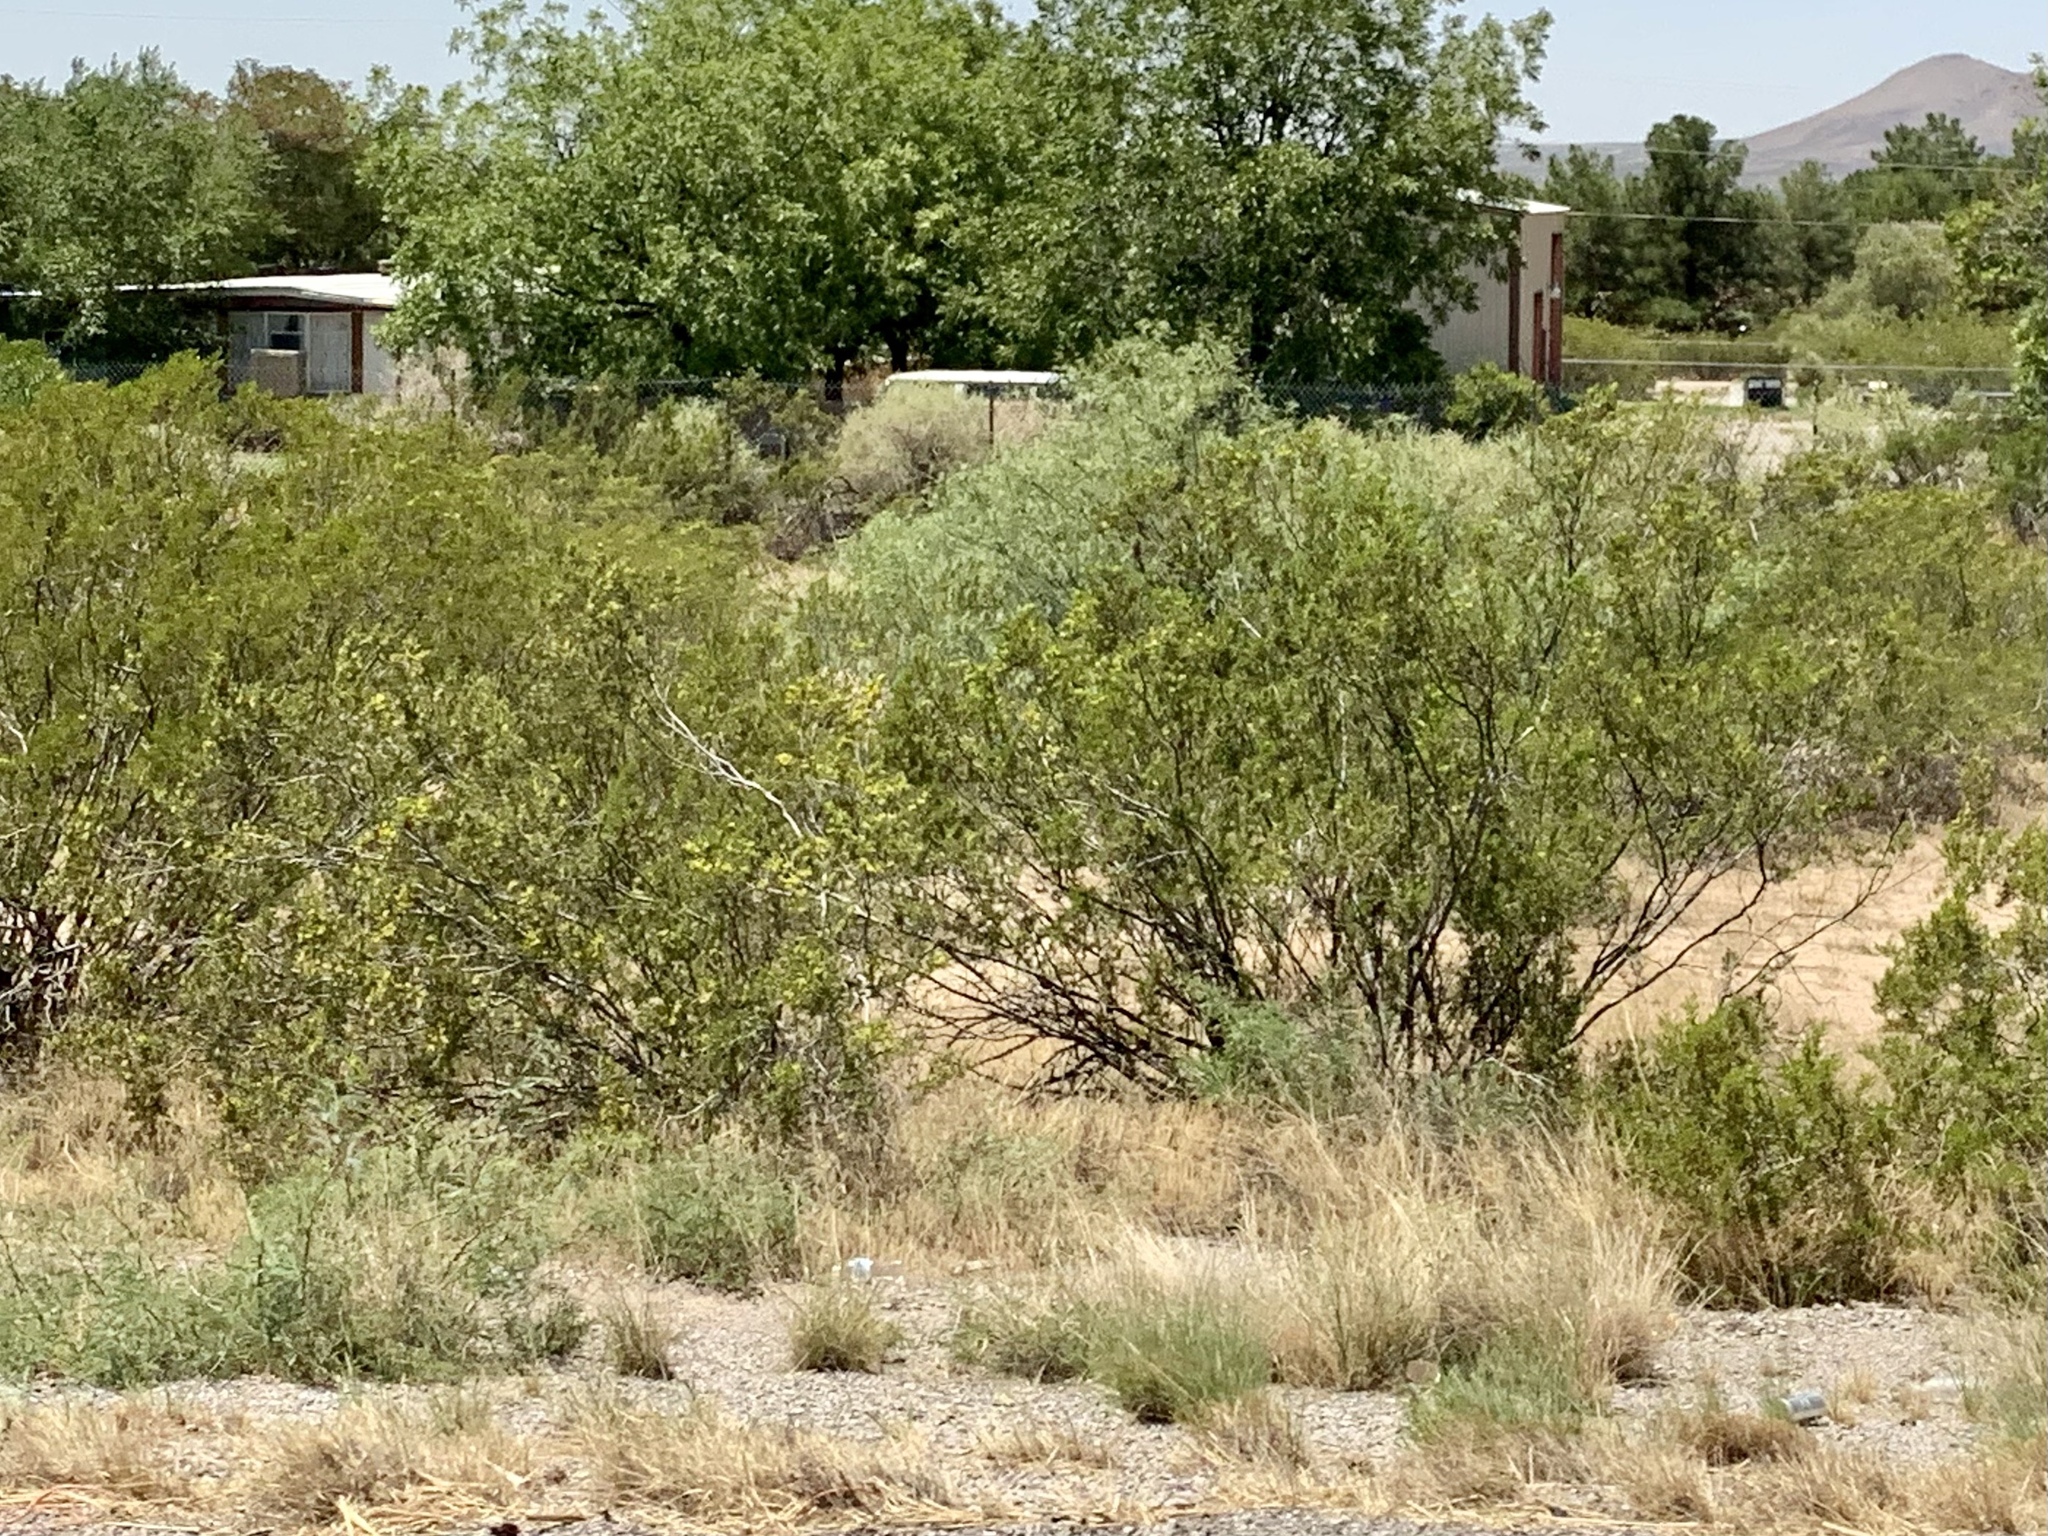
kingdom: Plantae
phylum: Tracheophyta
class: Magnoliopsida
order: Zygophyllales
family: Zygophyllaceae
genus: Larrea
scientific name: Larrea tridentata
